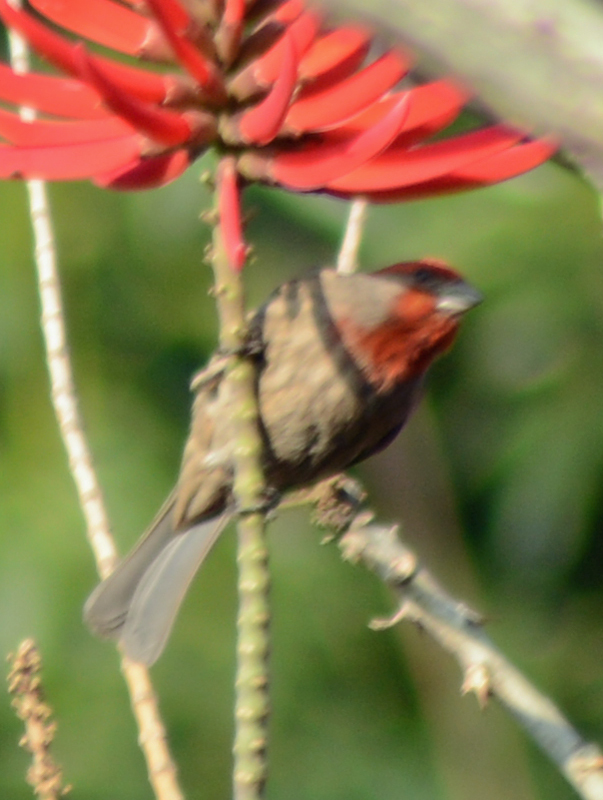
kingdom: Animalia
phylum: Chordata
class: Aves
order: Passeriformes
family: Fringillidae
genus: Haemorhous
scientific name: Haemorhous mexicanus
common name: House finch
